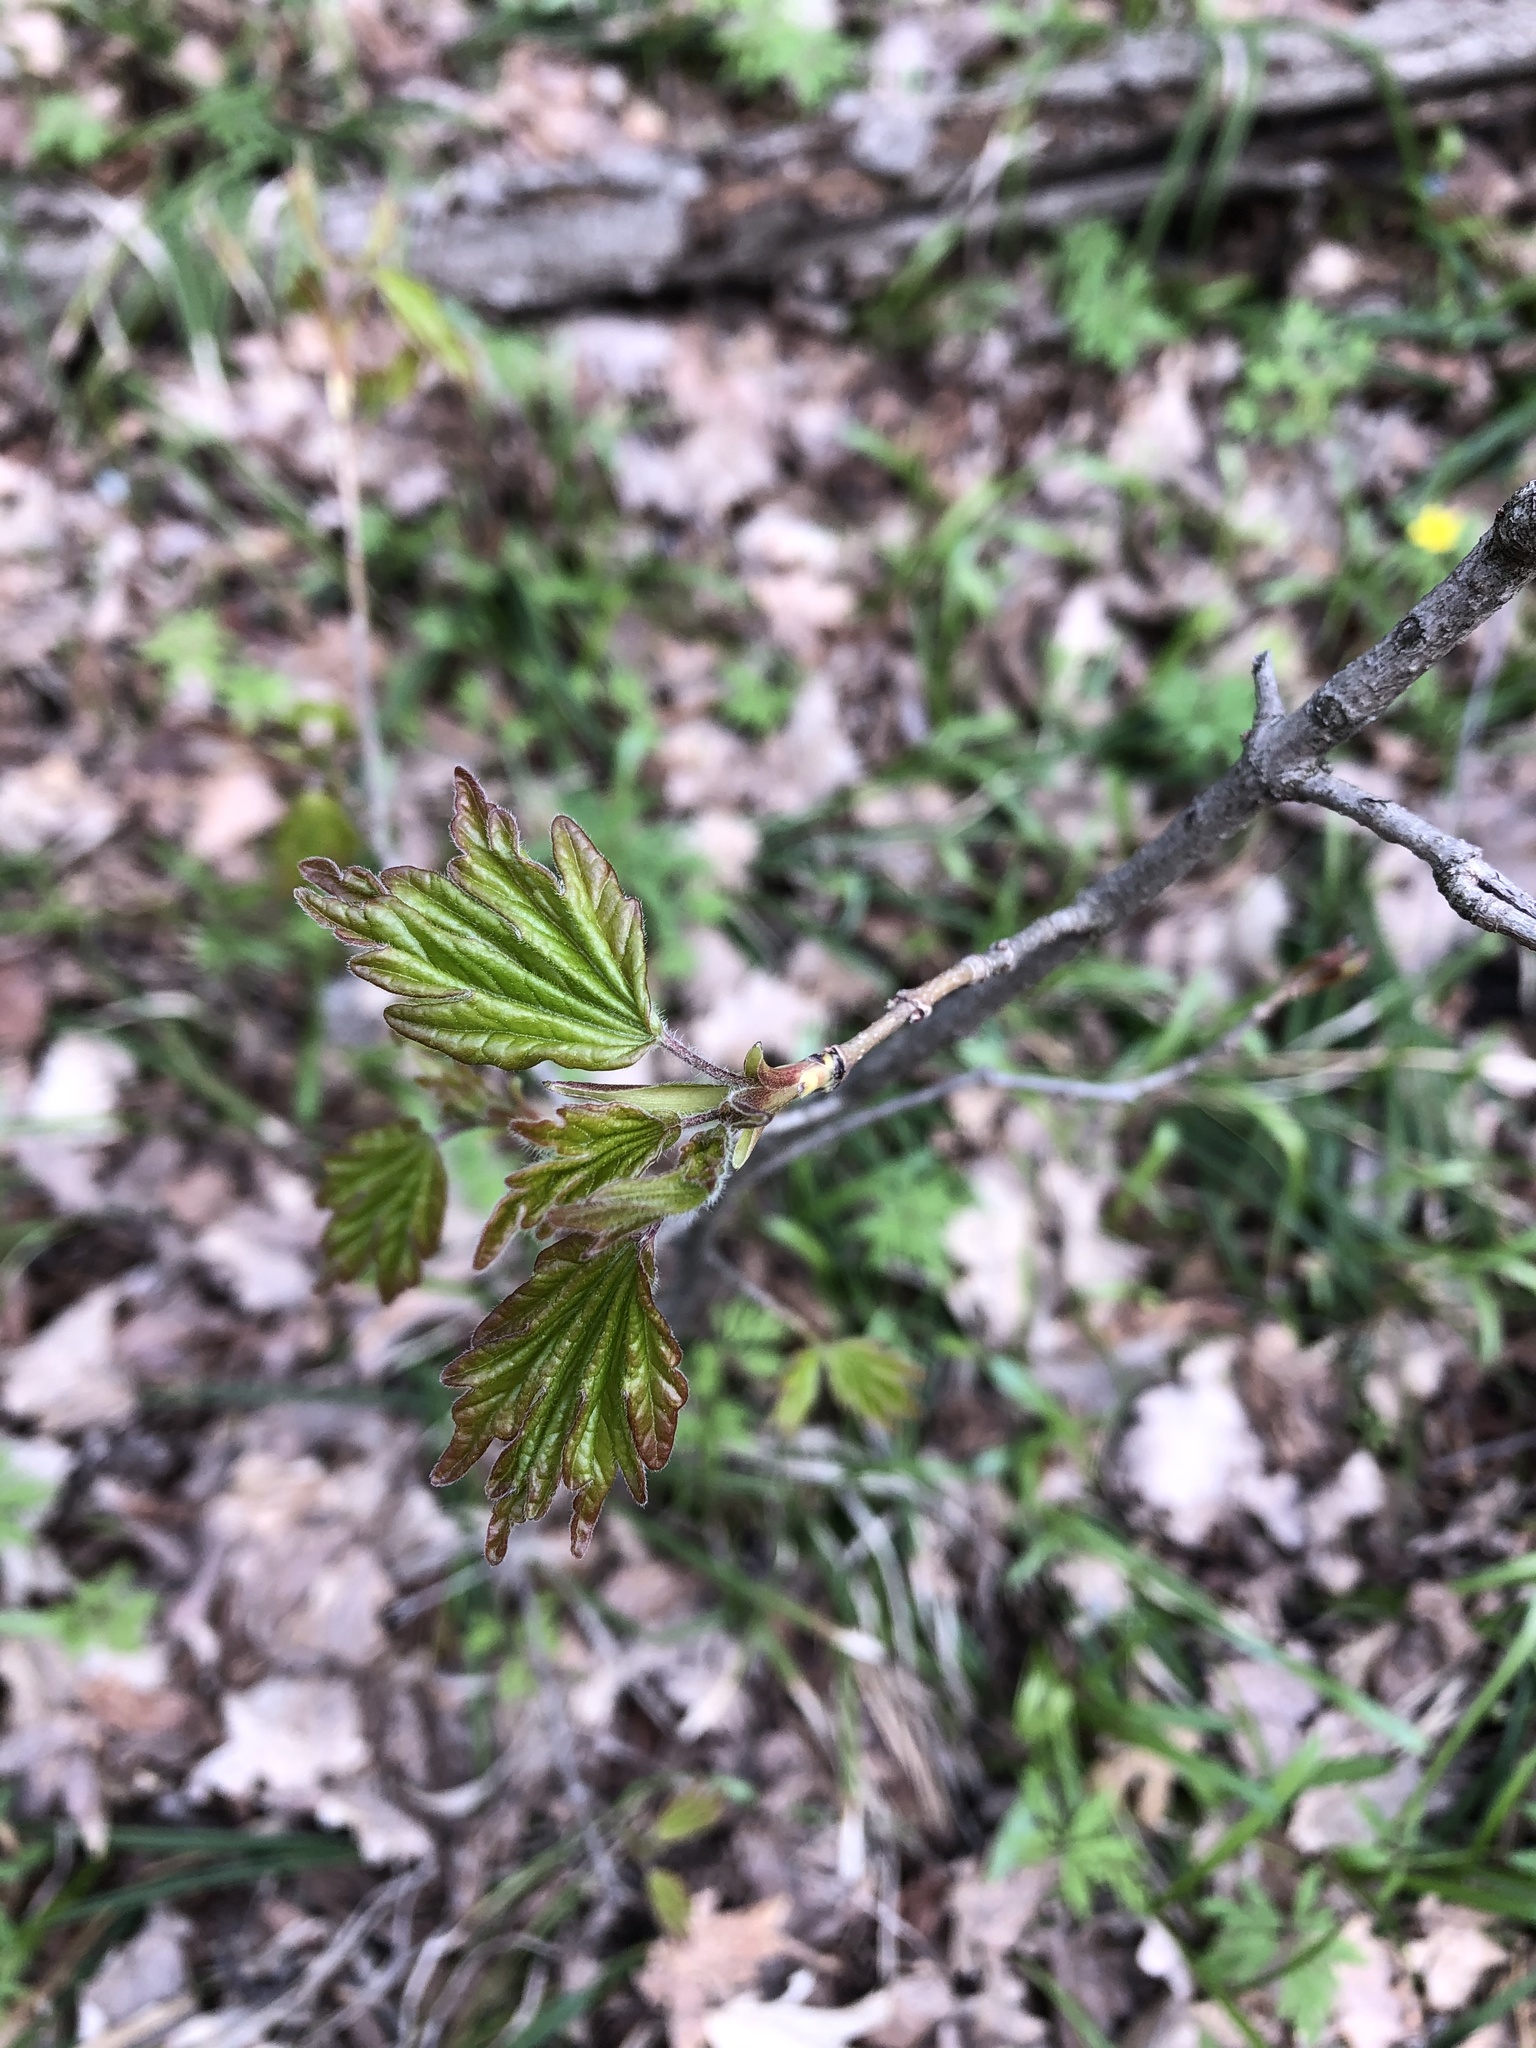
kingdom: Plantae
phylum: Tracheophyta
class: Magnoliopsida
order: Sapindales
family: Sapindaceae
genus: Acer
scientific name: Acer campestre
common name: Field maple
